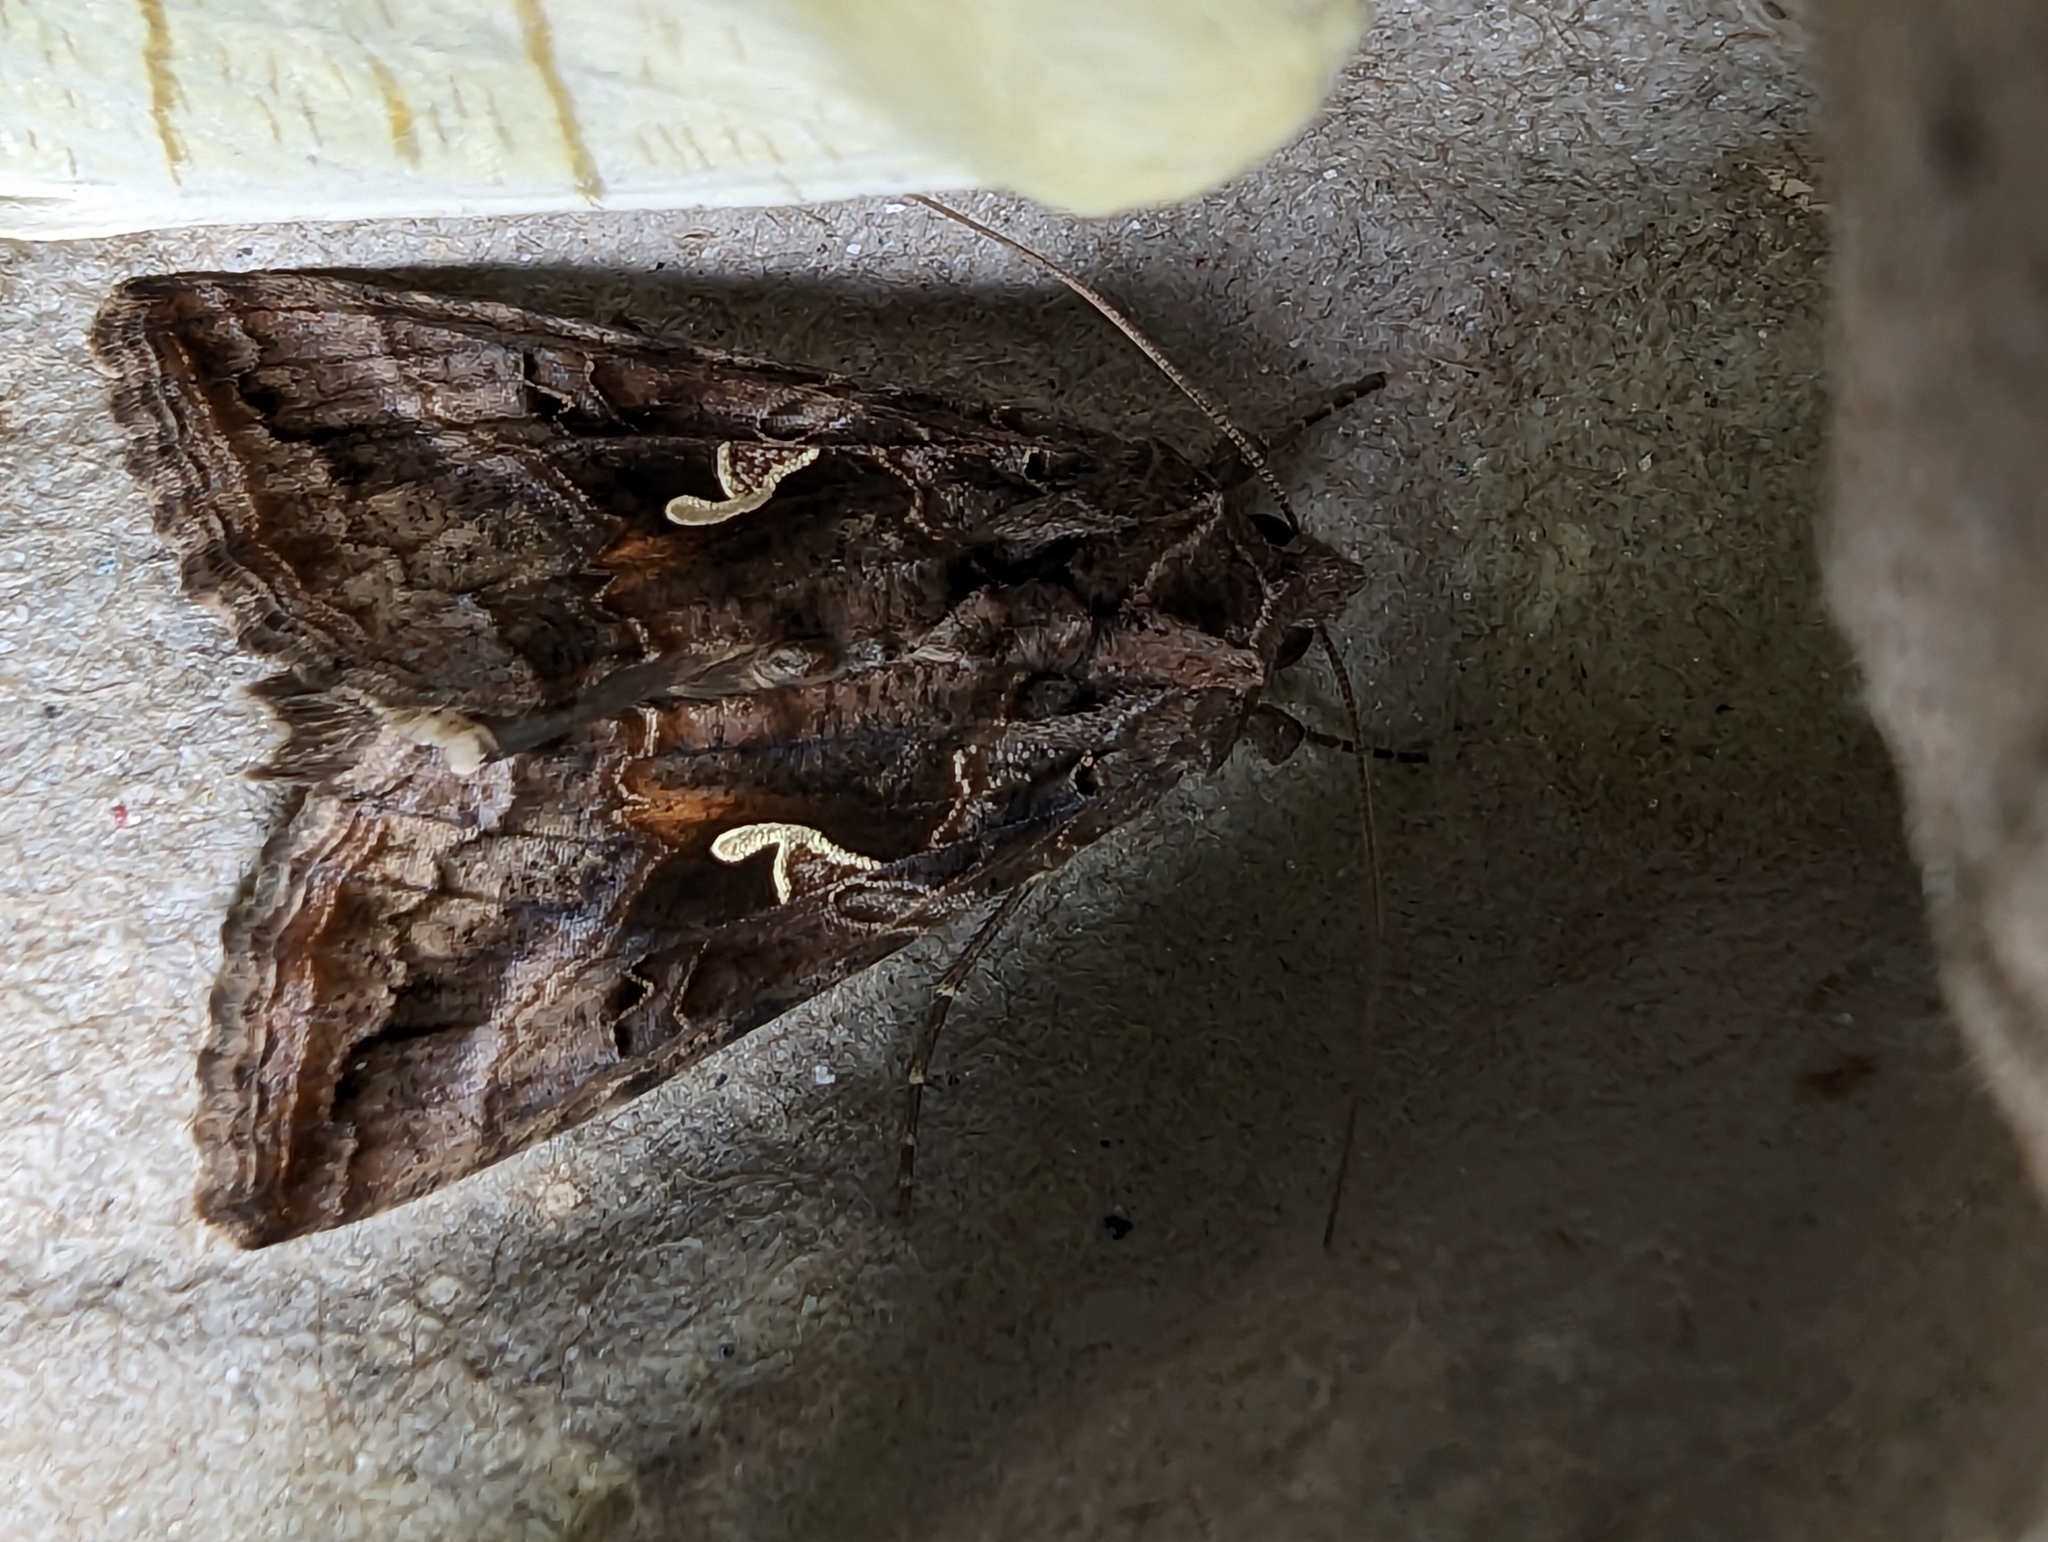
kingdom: Animalia
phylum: Arthropoda
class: Insecta
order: Lepidoptera
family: Noctuidae
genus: Autographa
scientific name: Autographa gamma
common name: Silver y
